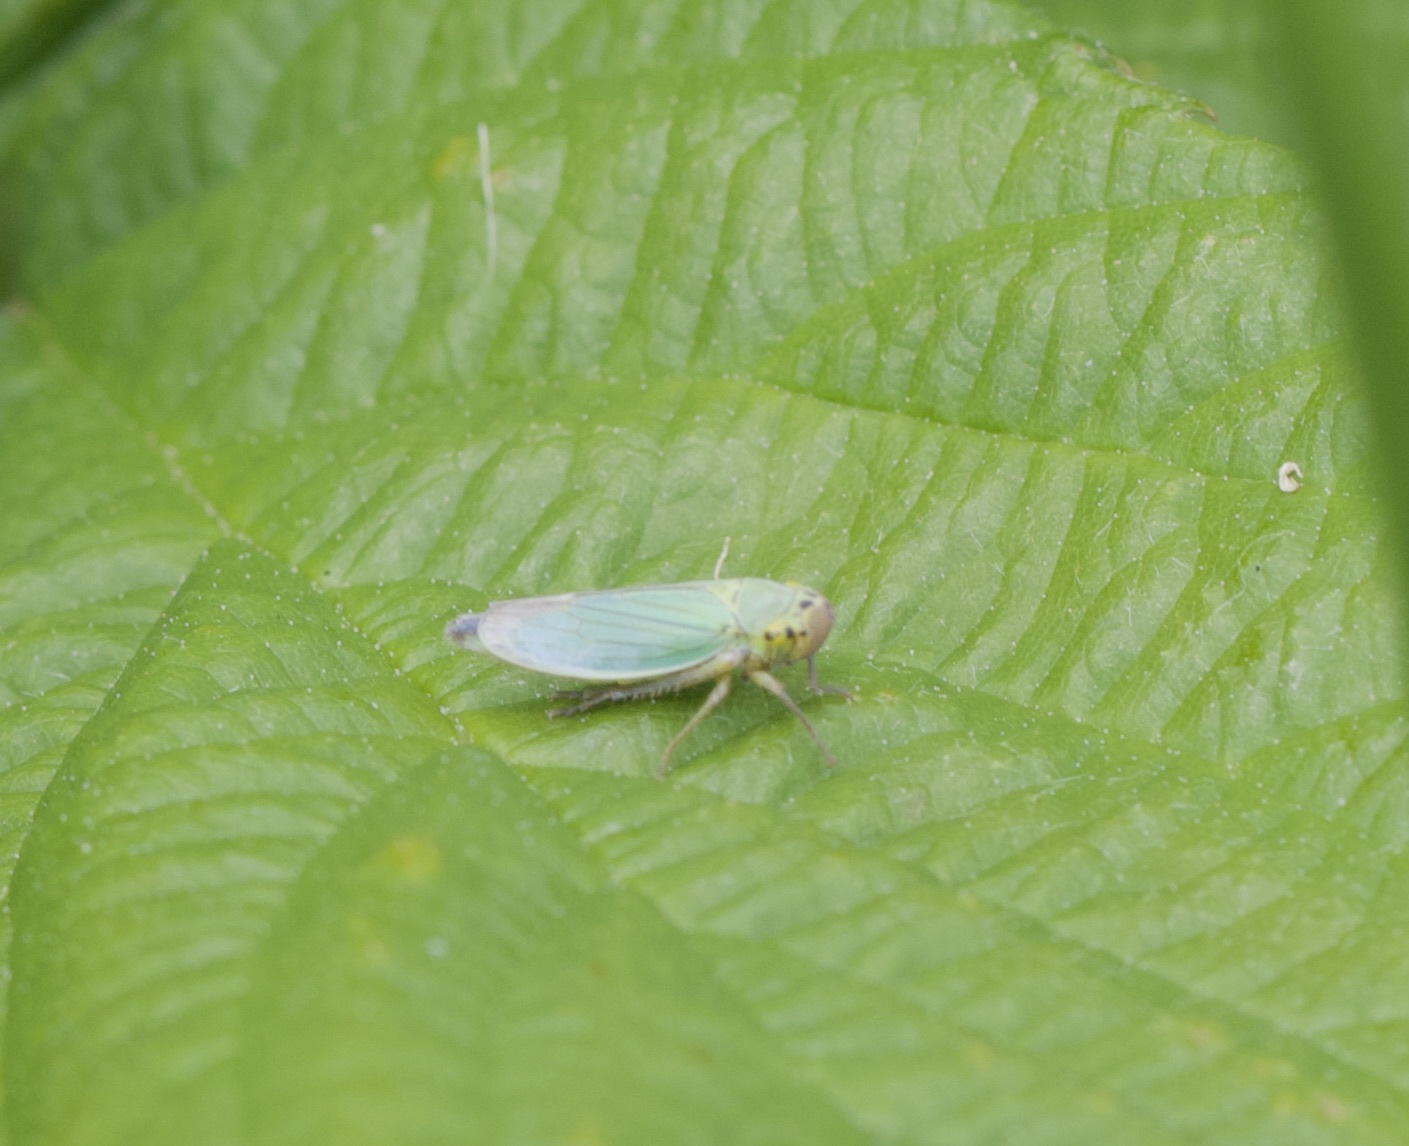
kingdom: Animalia
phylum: Arthropoda
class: Insecta
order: Hemiptera
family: Cicadellidae
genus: Cicadella
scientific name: Cicadella viridis
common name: Leafhopper
